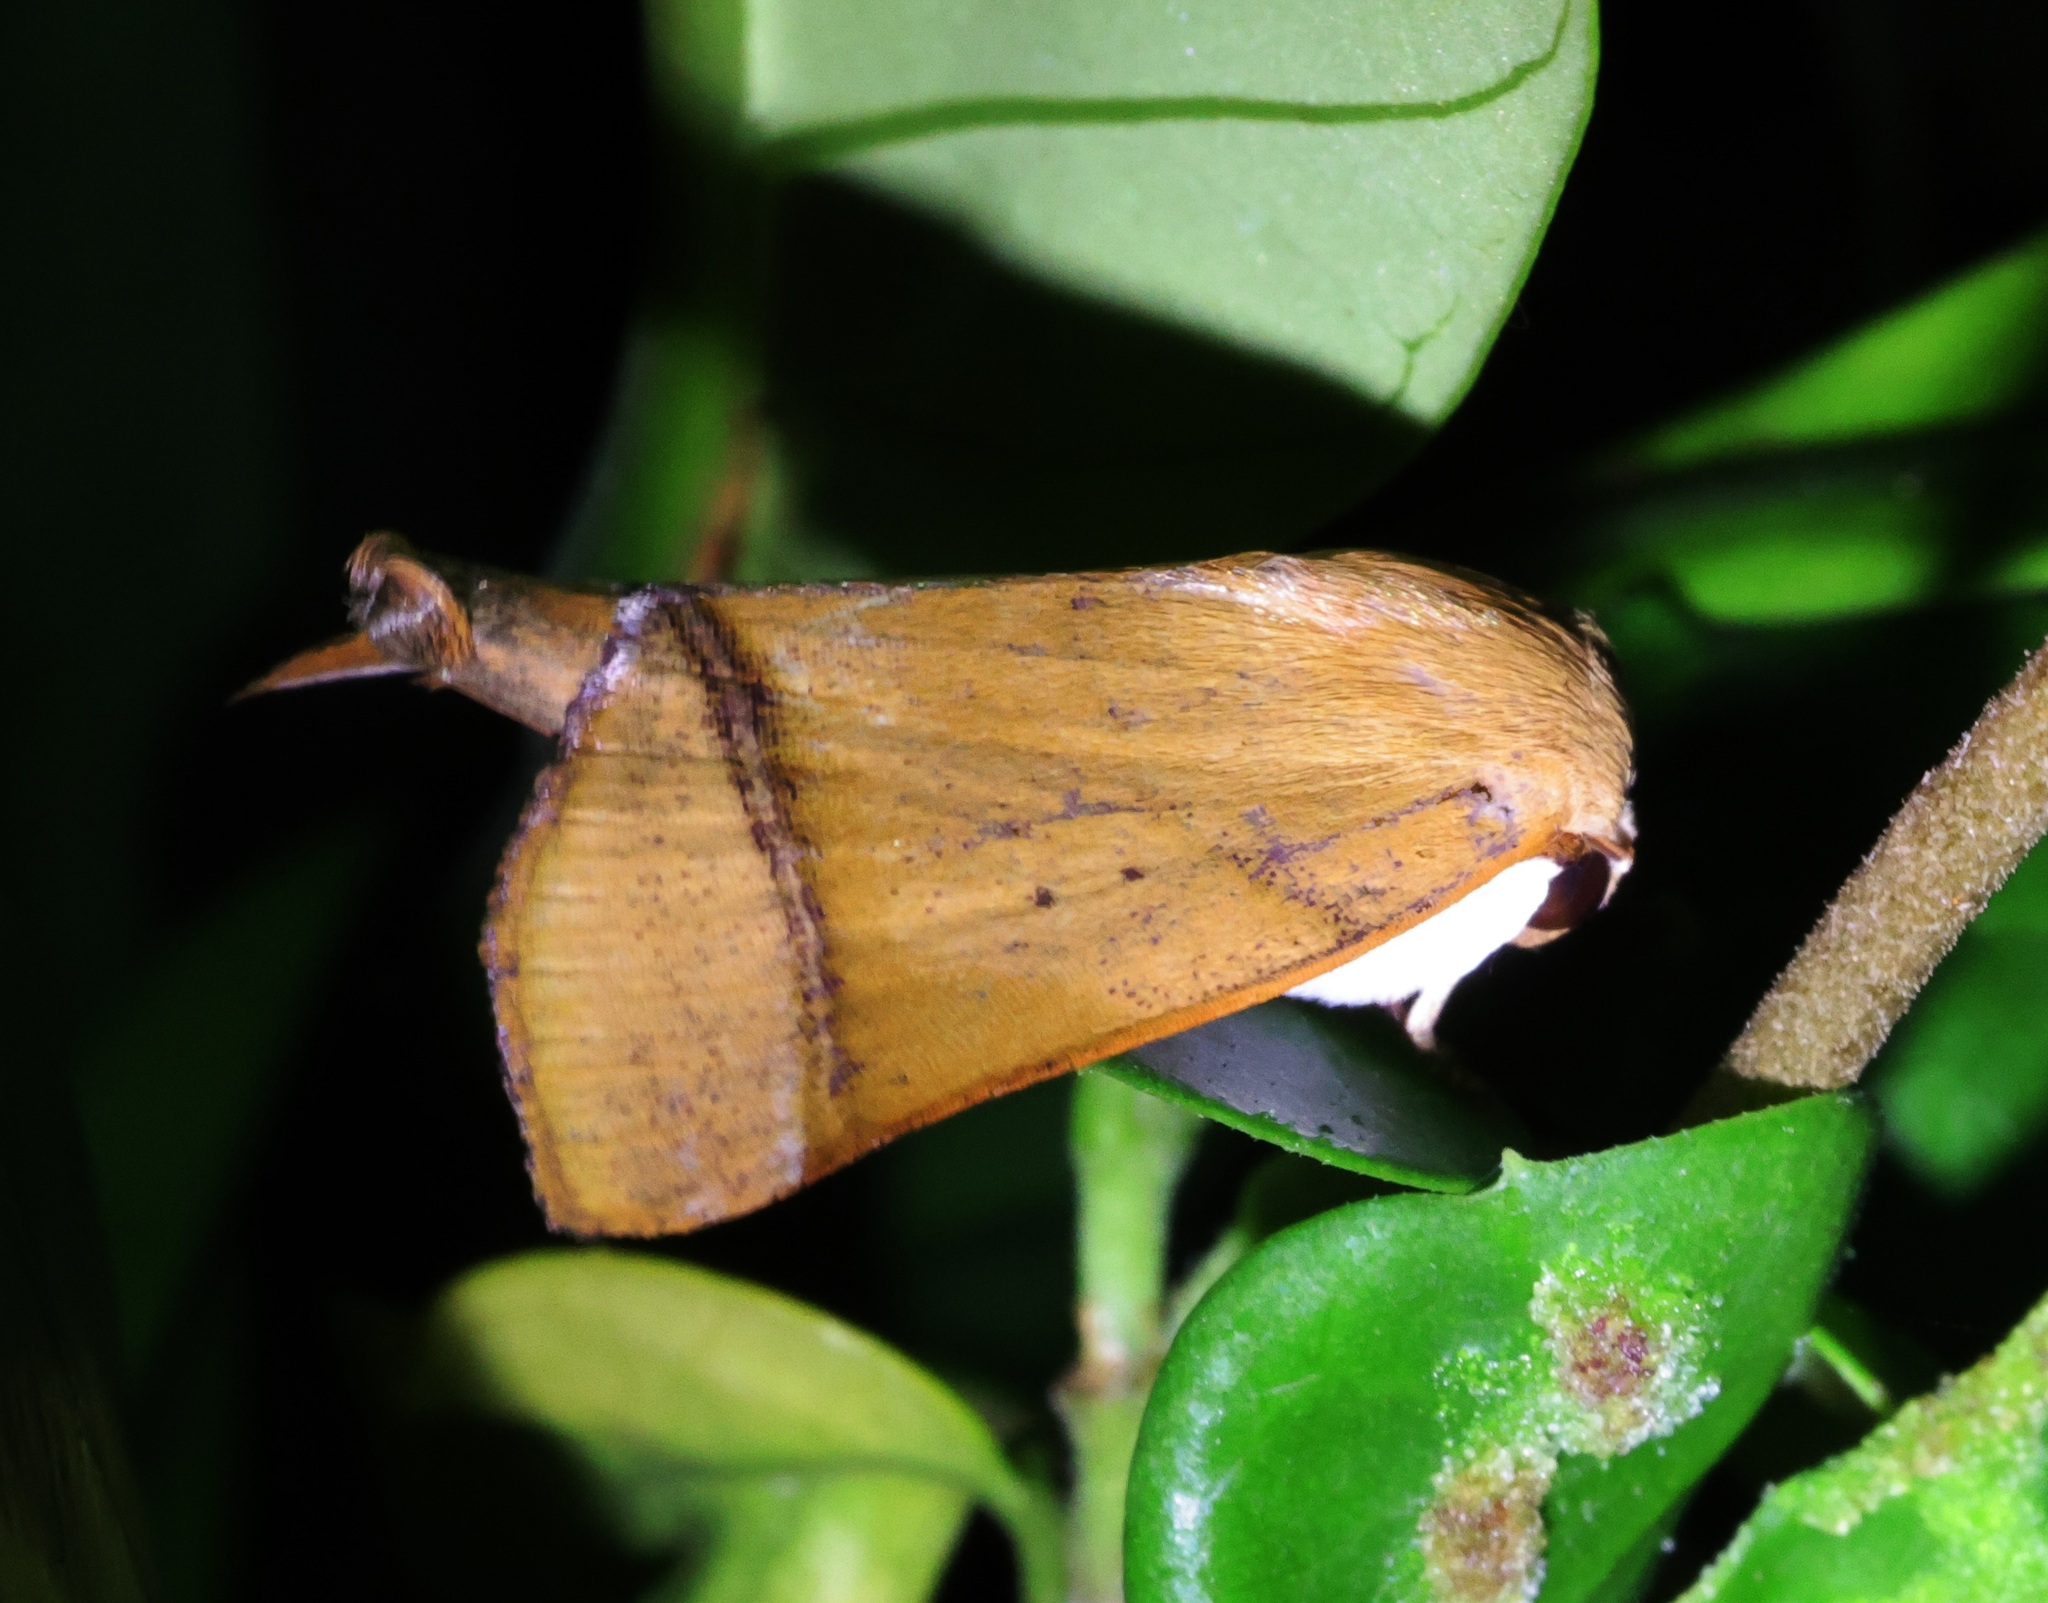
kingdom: Animalia
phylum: Arthropoda
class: Insecta
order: Lepidoptera
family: Nolidae
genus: Carea
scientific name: Carea varipes
